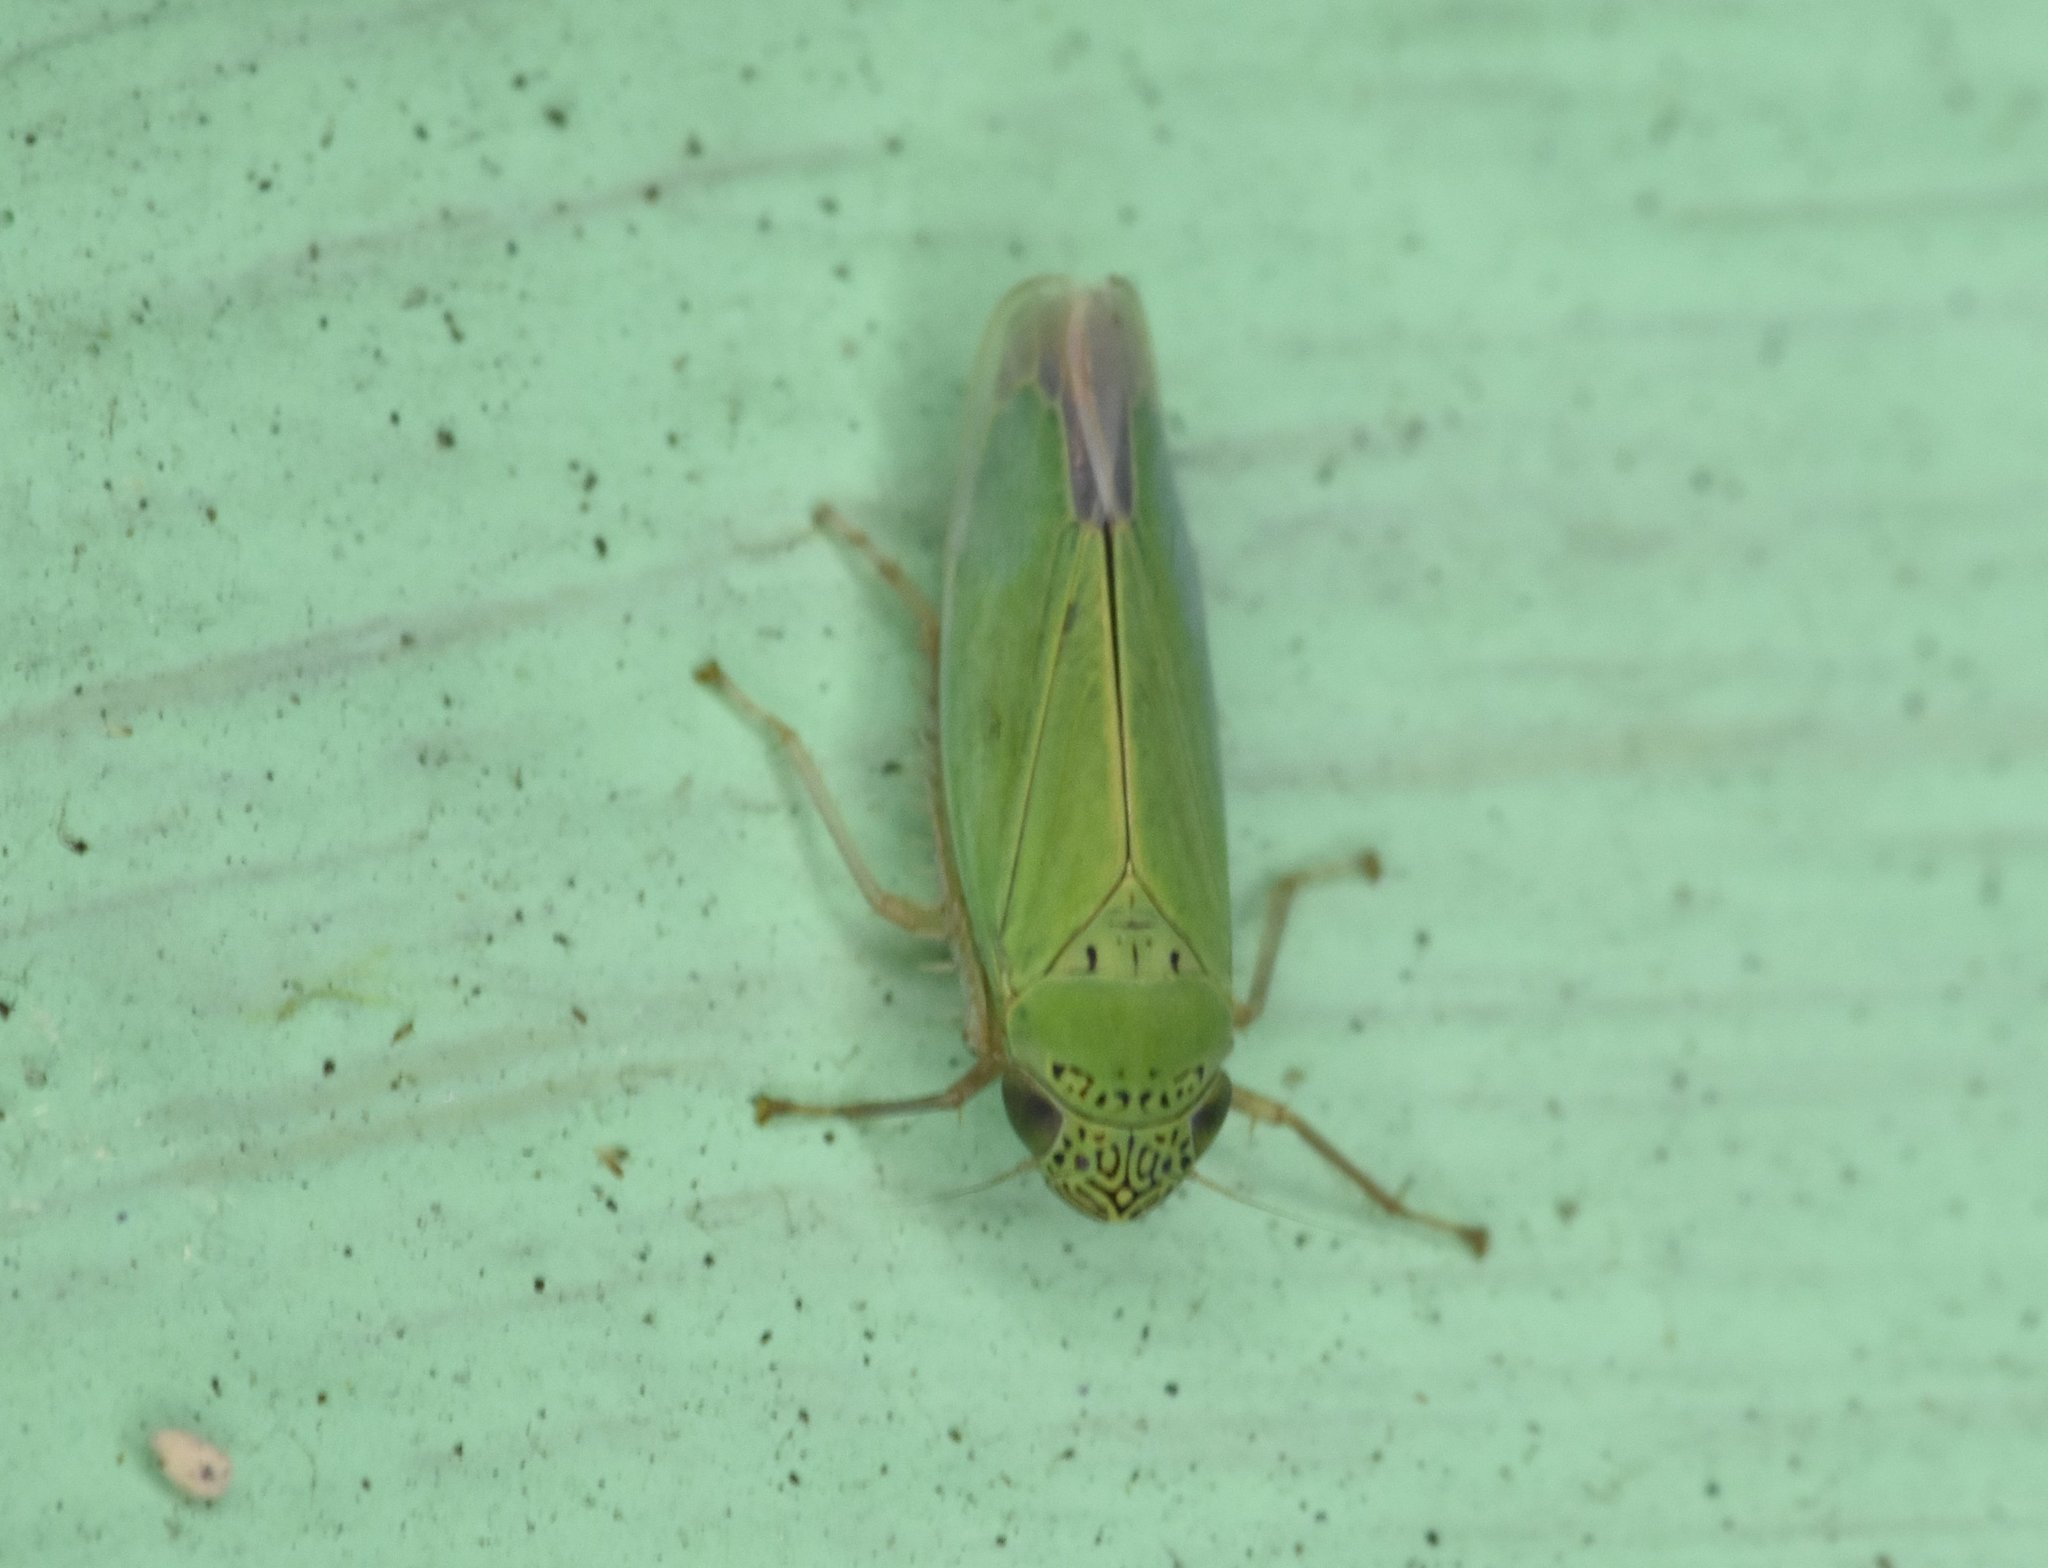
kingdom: Animalia
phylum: Arthropoda
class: Insecta
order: Hemiptera
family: Cicadellidae
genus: Hortensia
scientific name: Hortensia similis
